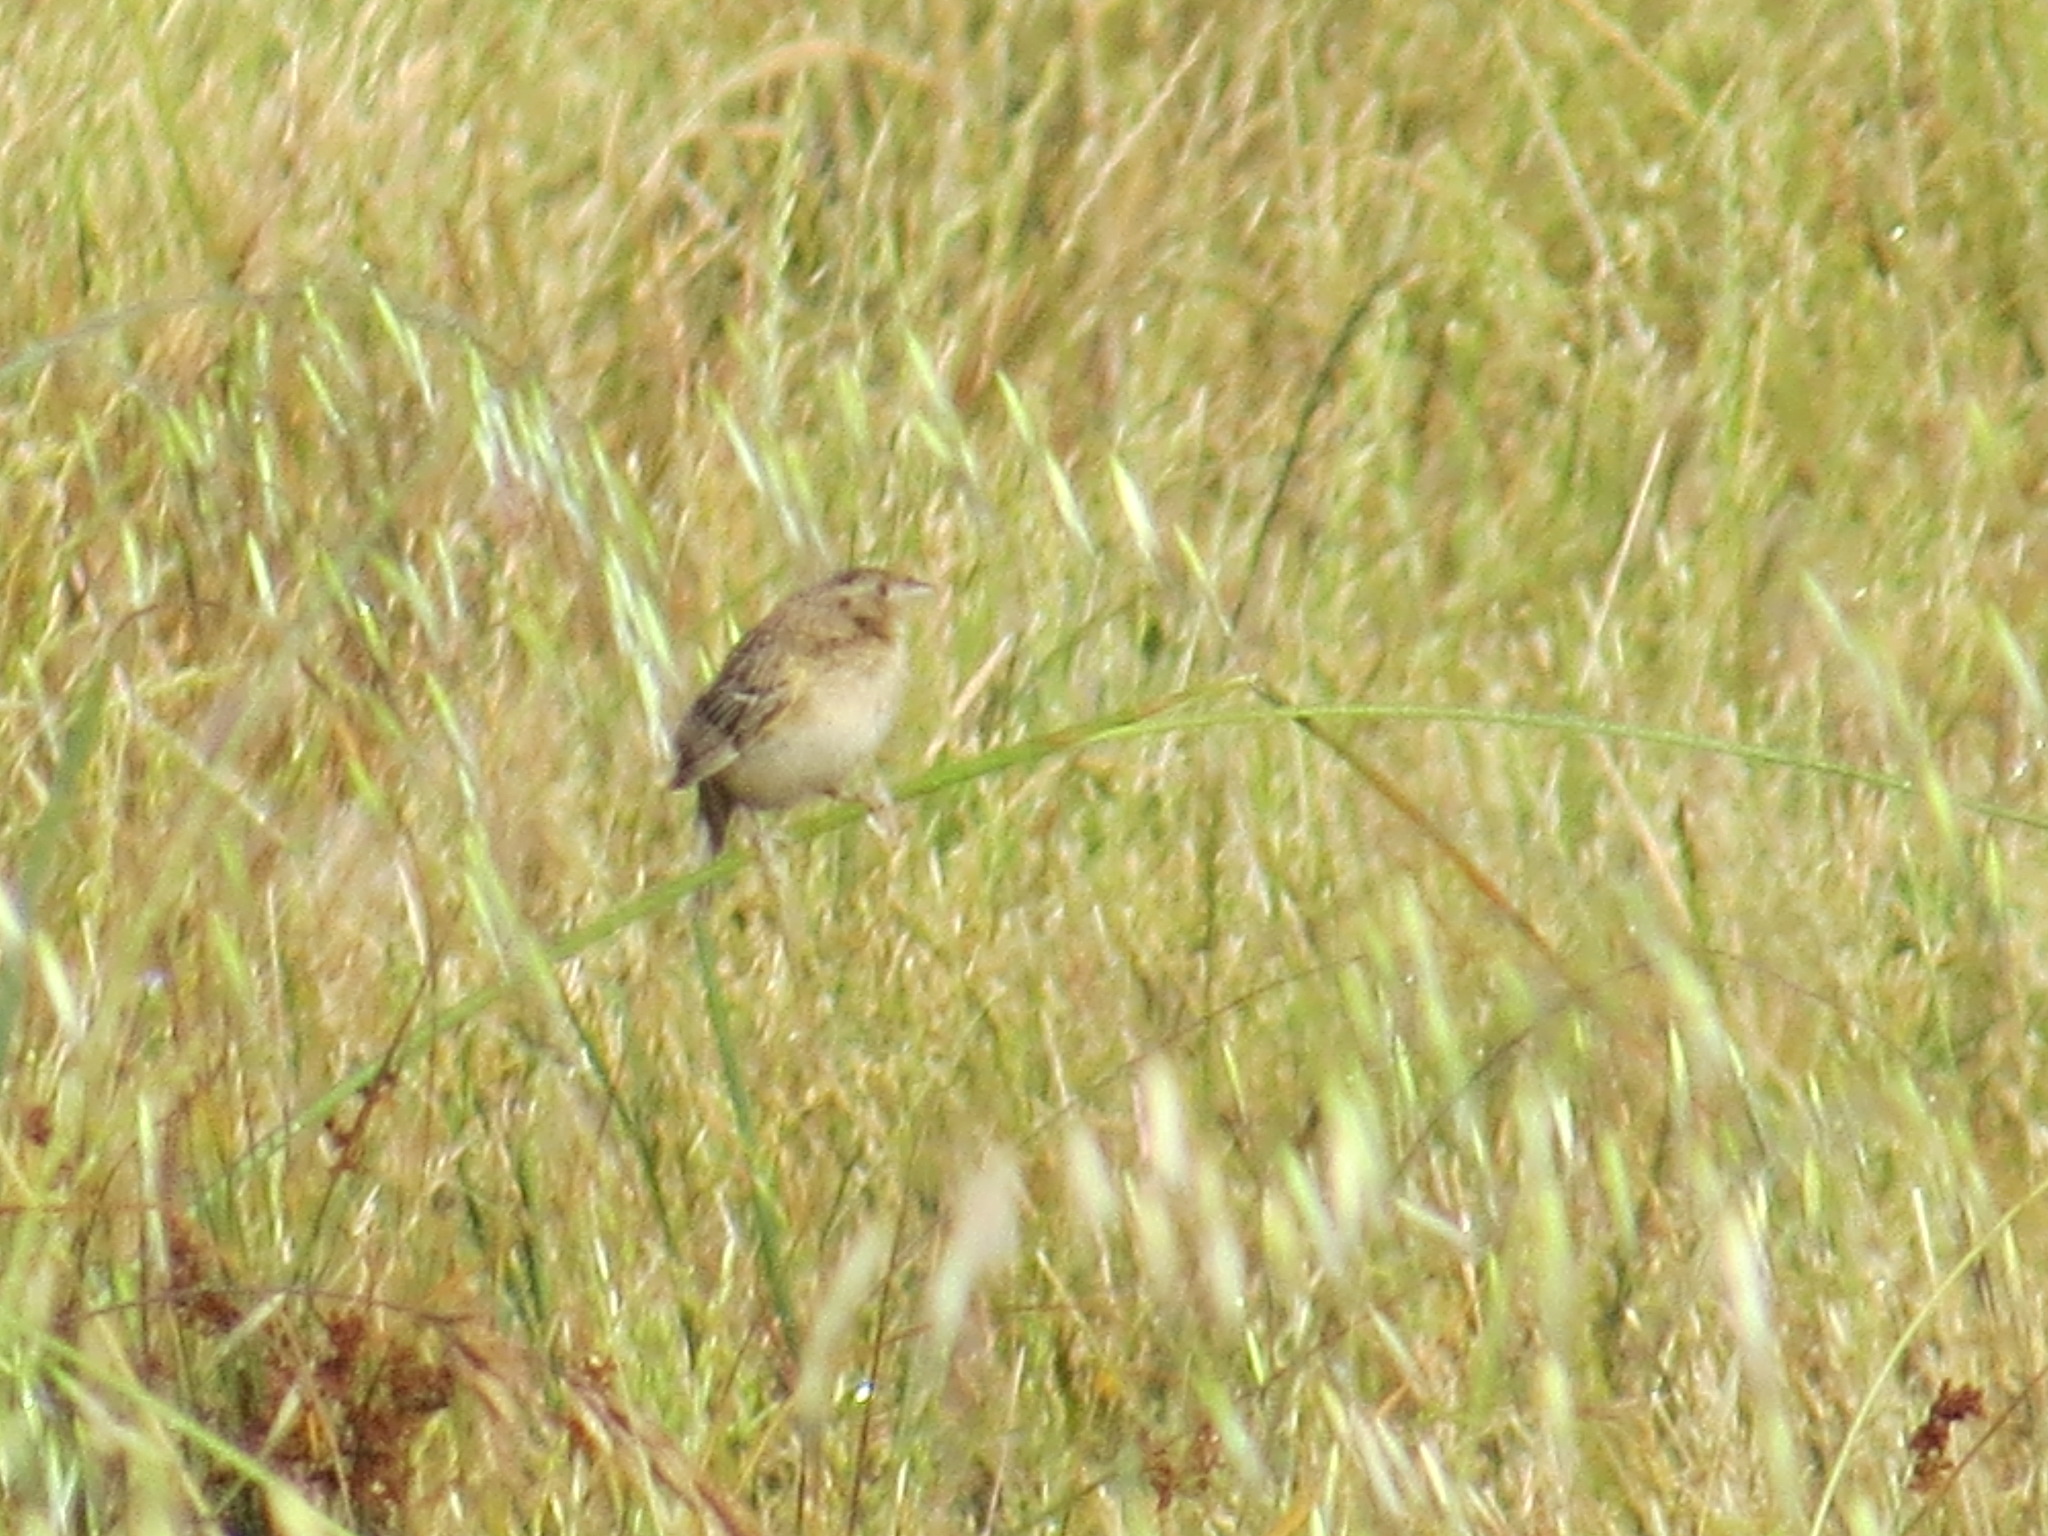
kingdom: Animalia
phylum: Chordata
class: Aves
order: Passeriformes
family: Passerellidae
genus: Ammodramus
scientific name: Ammodramus savannarum
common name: Grasshopper sparrow
